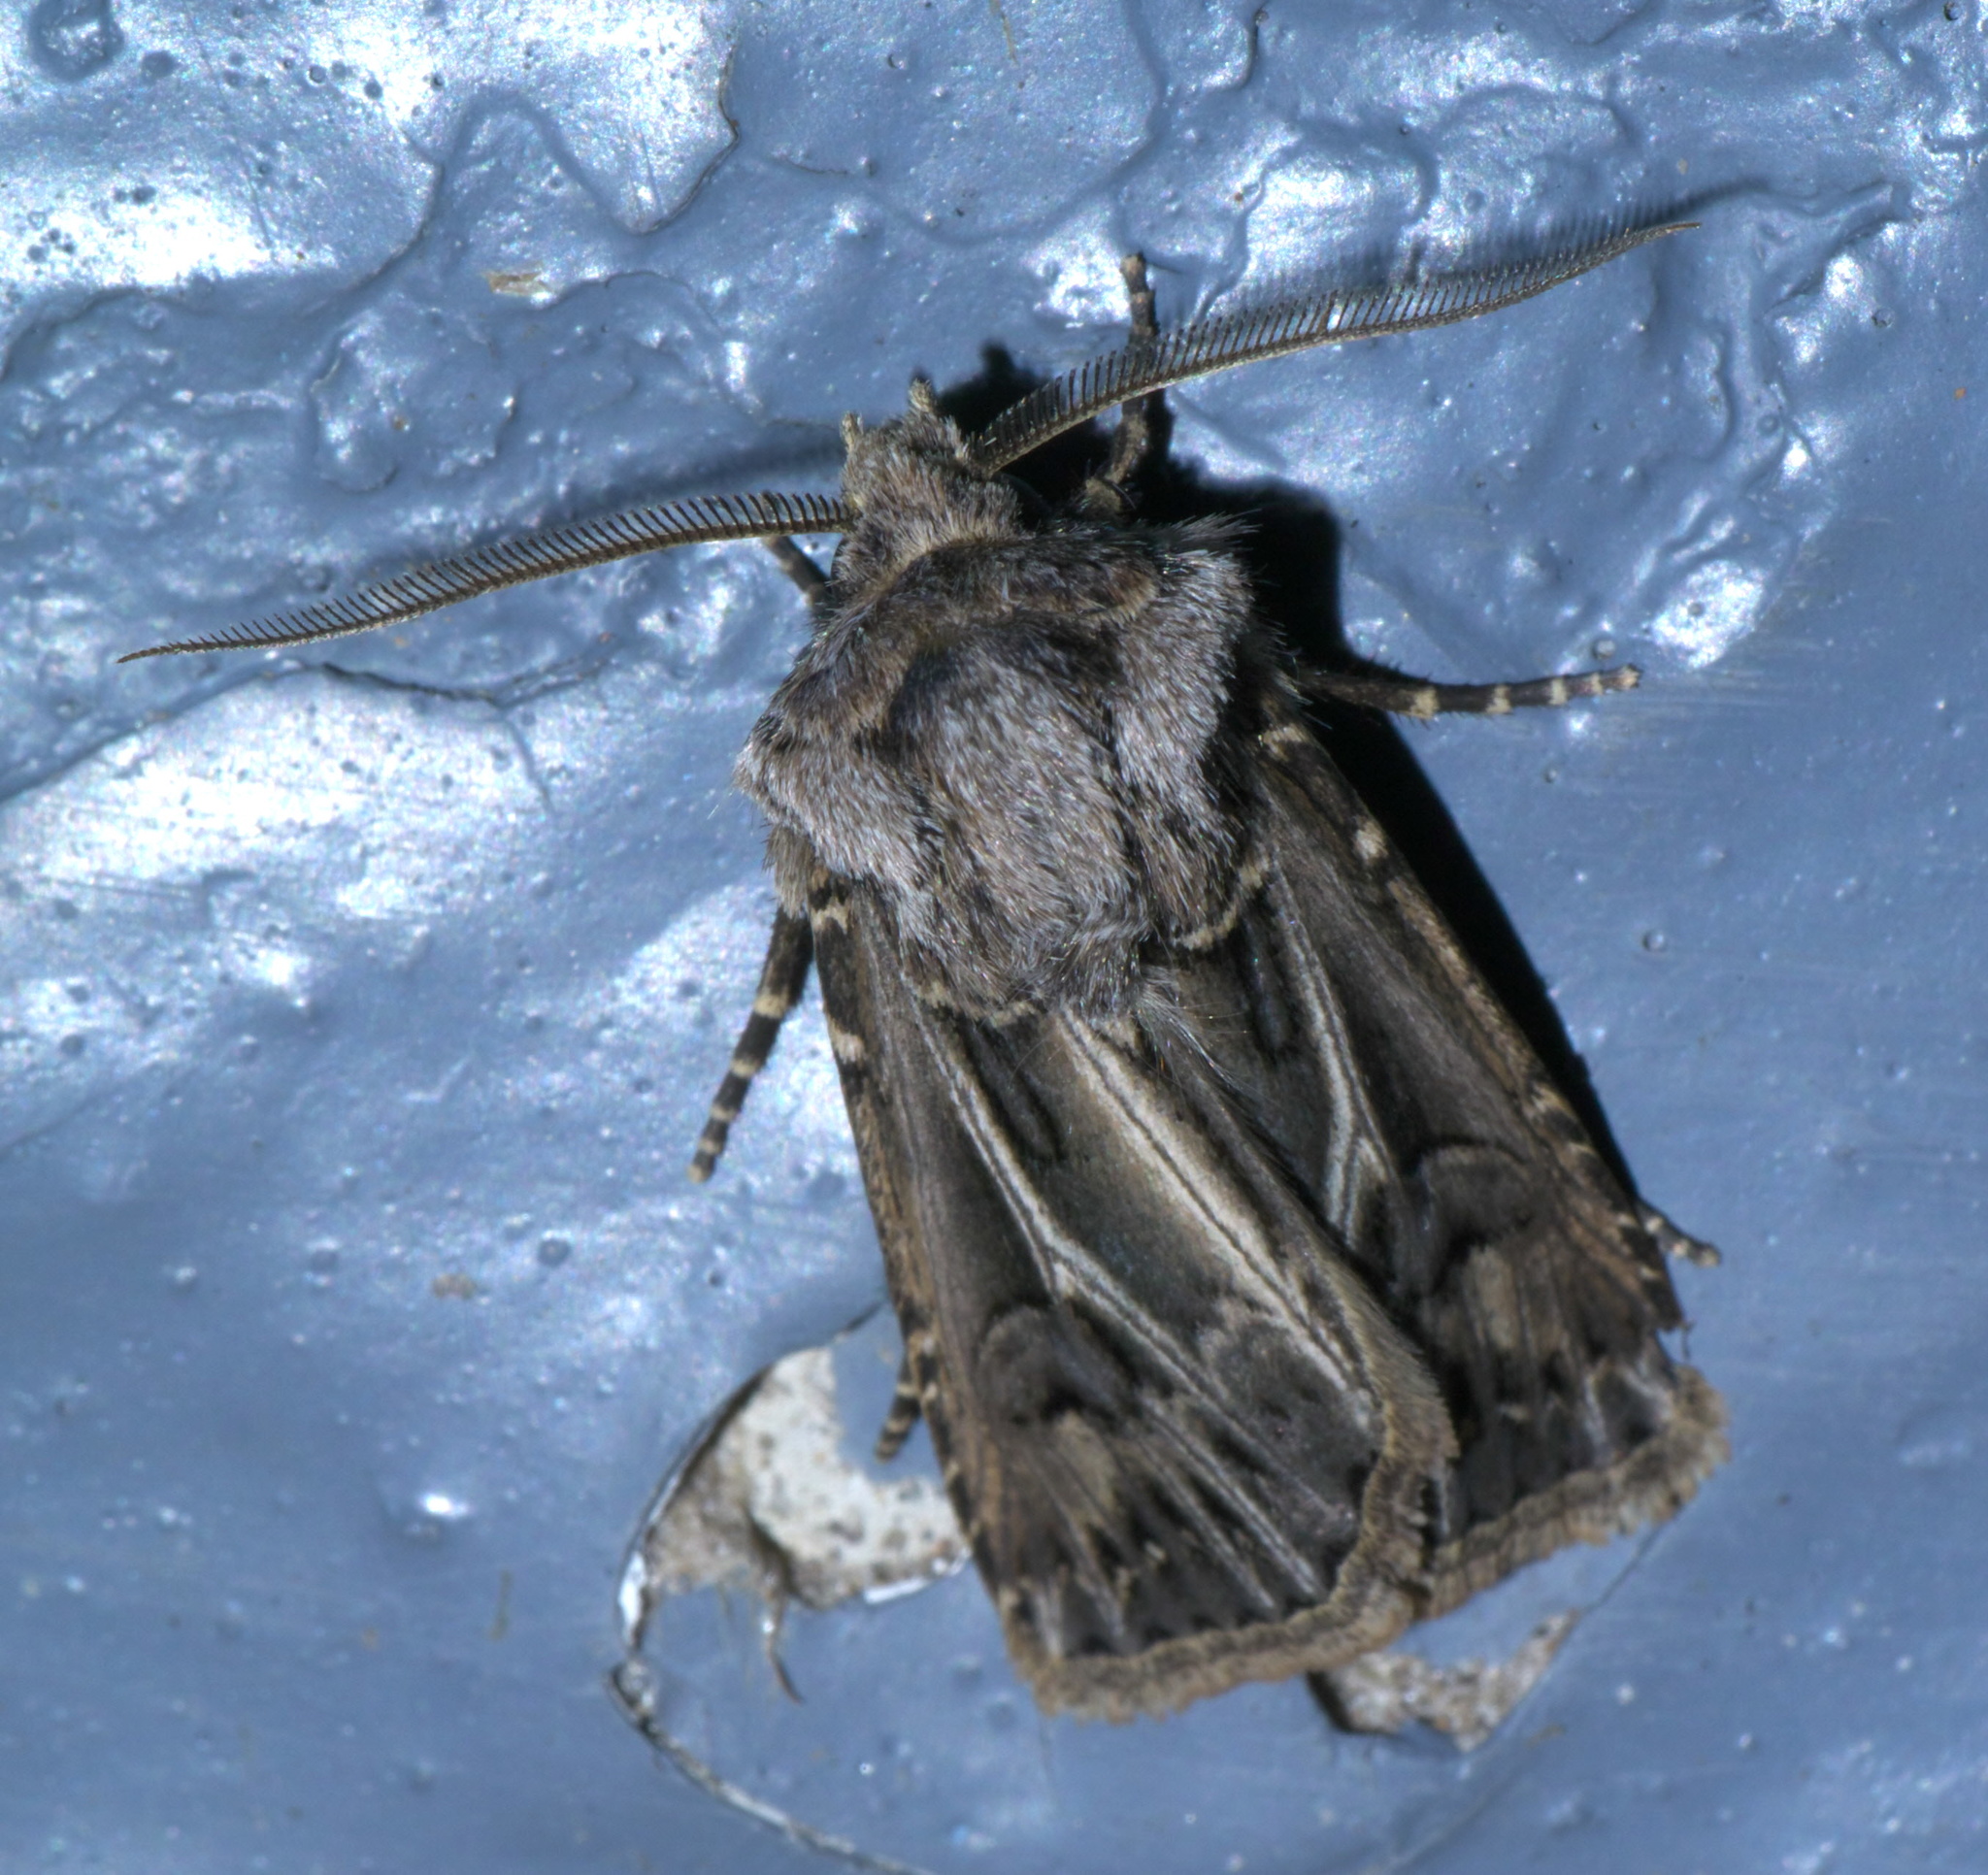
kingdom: Animalia
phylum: Arthropoda
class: Insecta
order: Lepidoptera
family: Noctuidae
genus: Agrotis
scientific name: Agrotis gladiaria
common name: Claybacked cutworm
